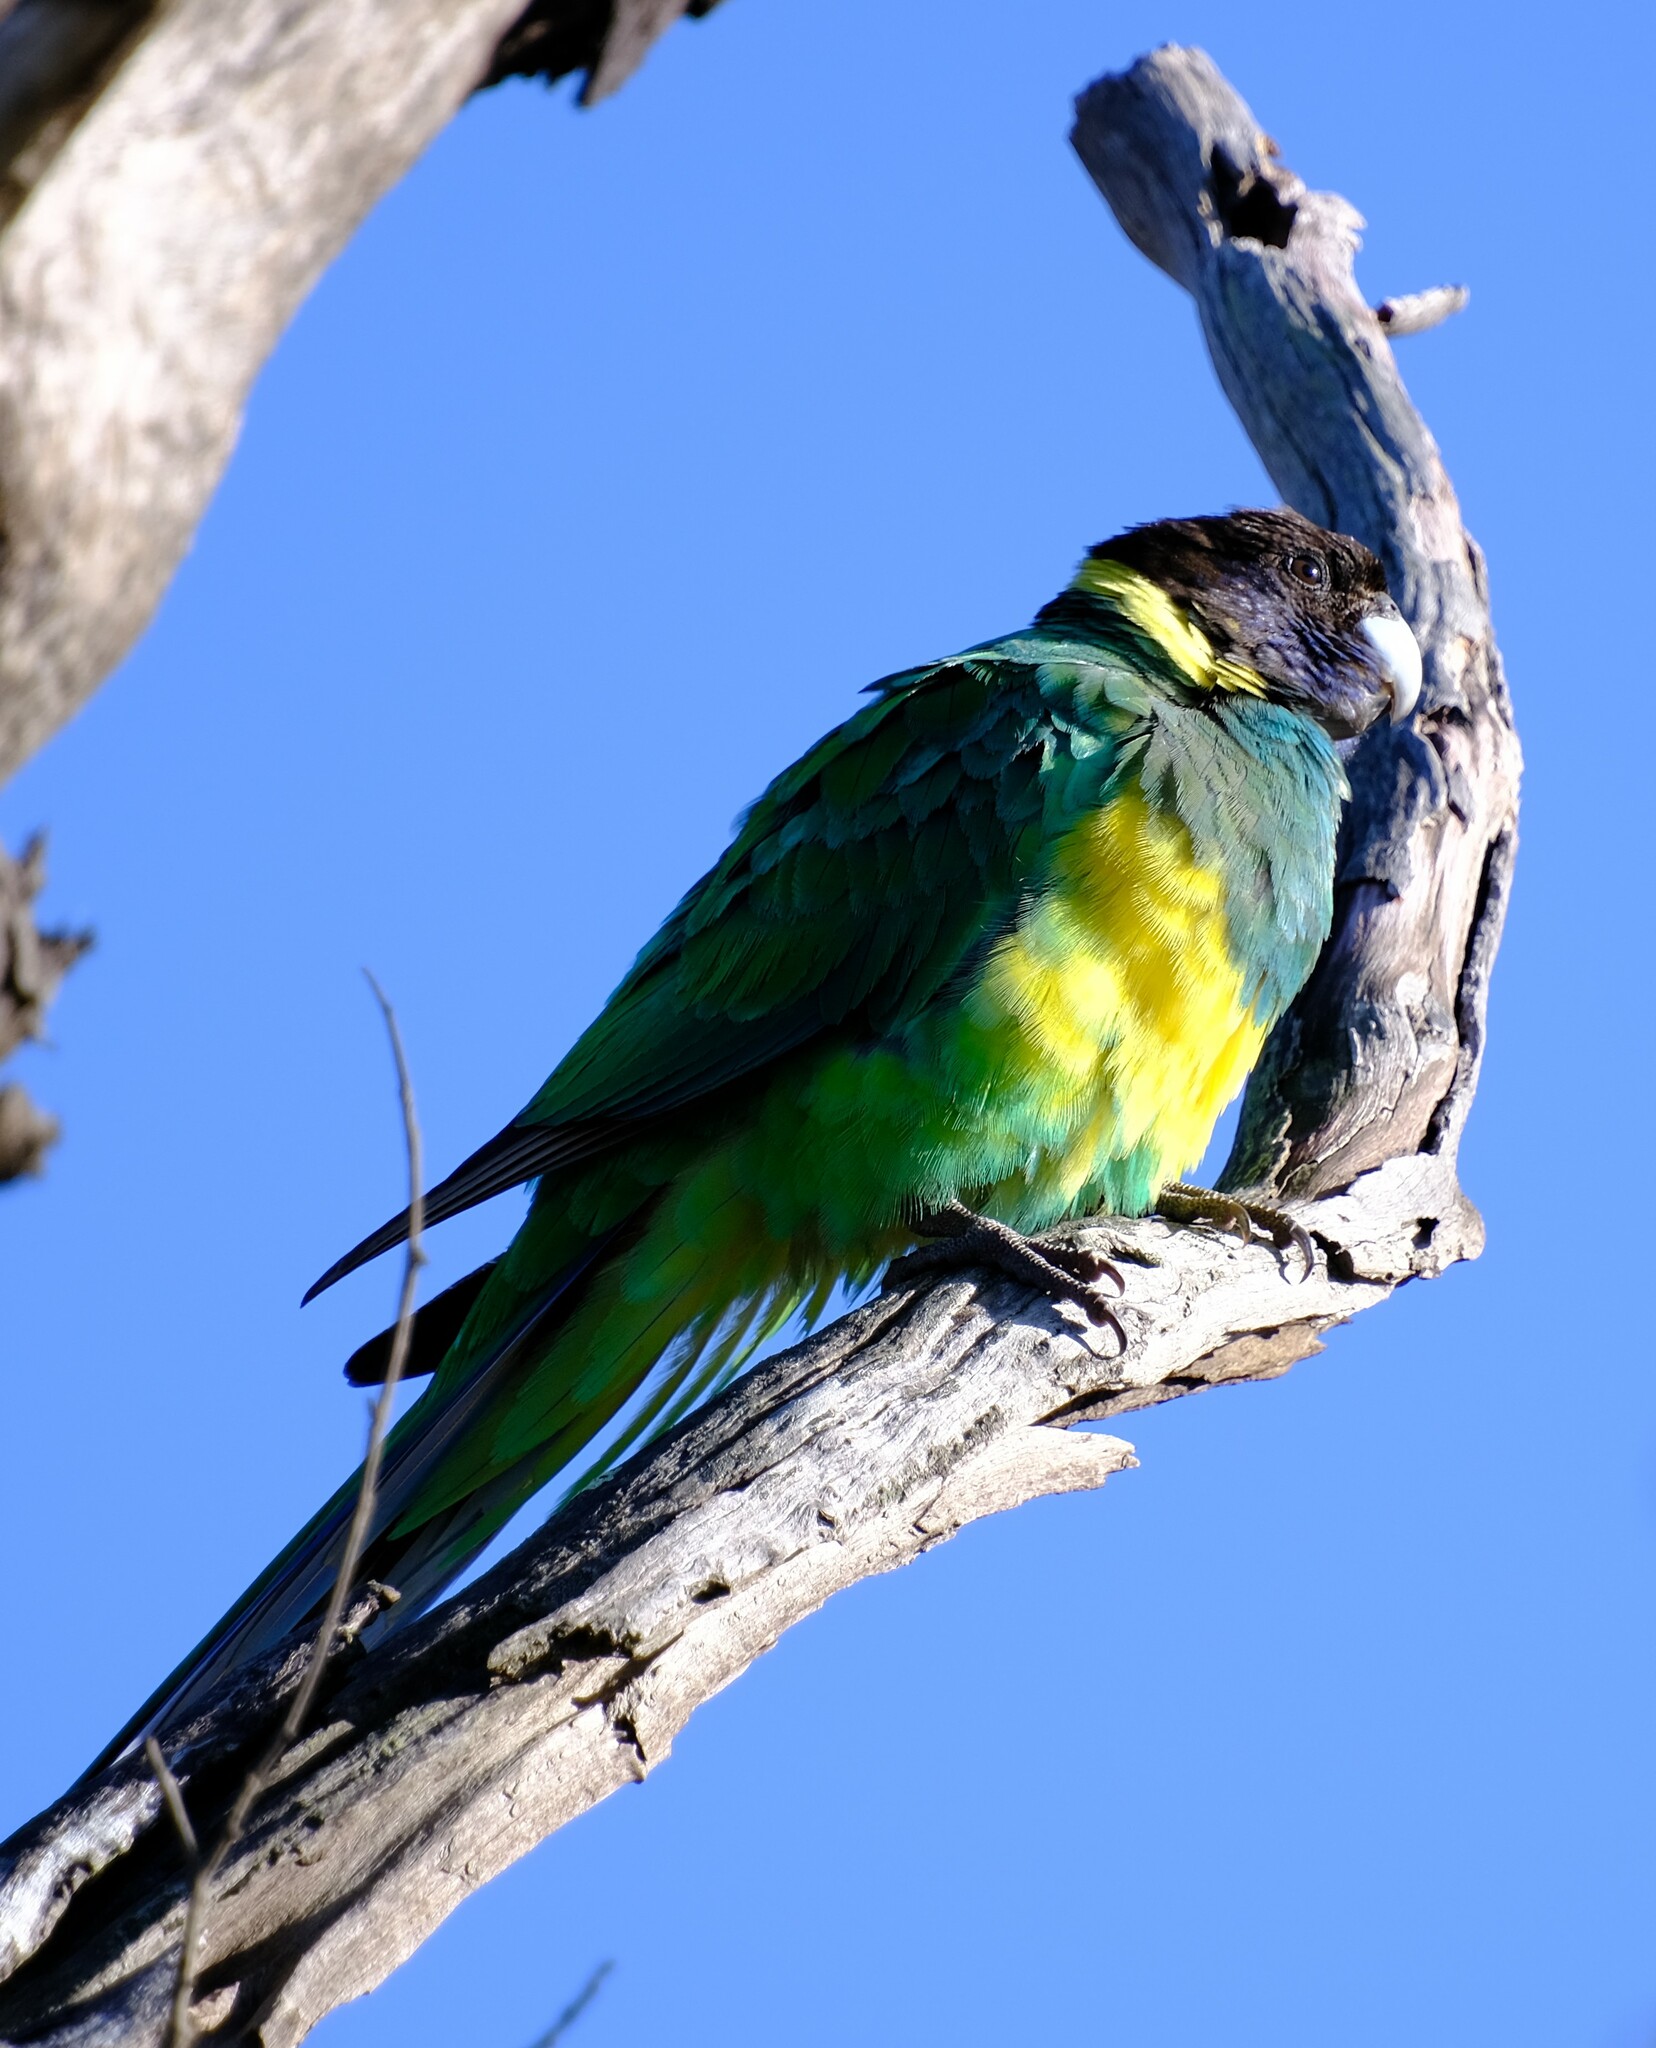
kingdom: Animalia
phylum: Chordata
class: Aves
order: Psittaciformes
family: Psittacidae
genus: Barnardius
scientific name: Barnardius zonarius
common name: Australian ringneck
